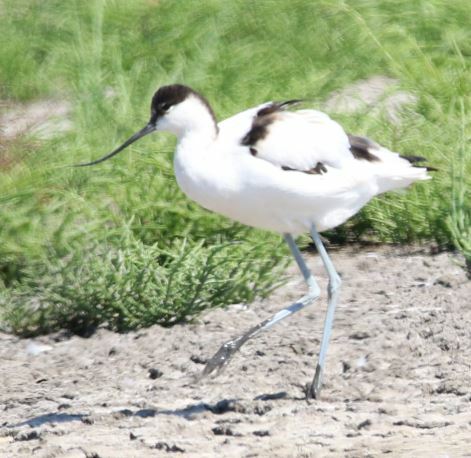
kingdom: Animalia
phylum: Chordata
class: Aves
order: Charadriiformes
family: Recurvirostridae
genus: Recurvirostra
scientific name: Recurvirostra avosetta
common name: Pied avocet
